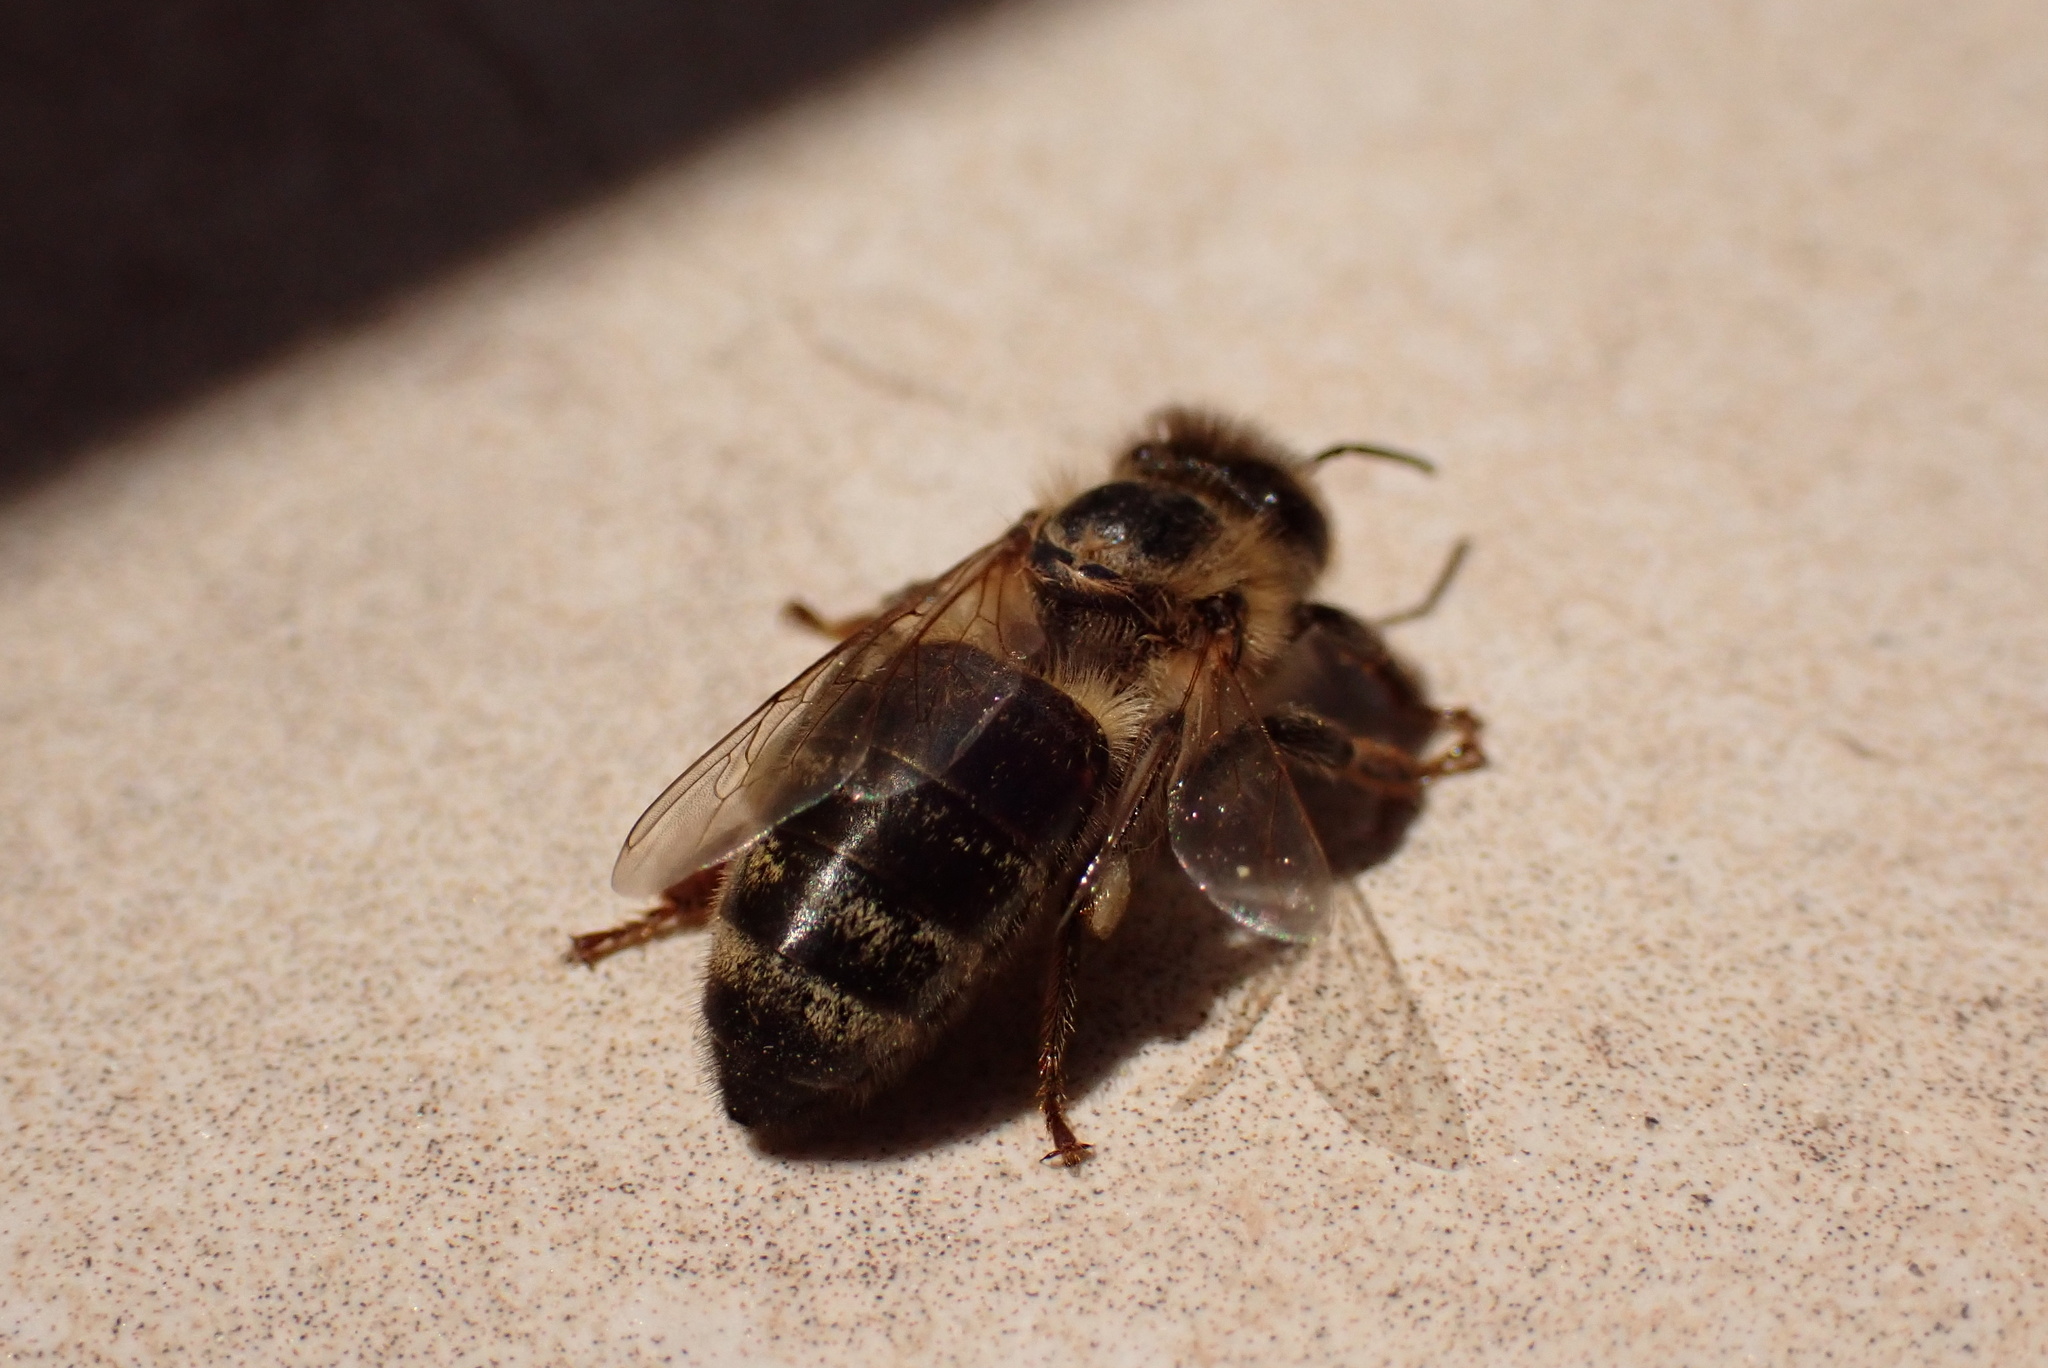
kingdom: Animalia
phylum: Arthropoda
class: Insecta
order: Hymenoptera
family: Apidae
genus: Apis
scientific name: Apis mellifera
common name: Honey bee
